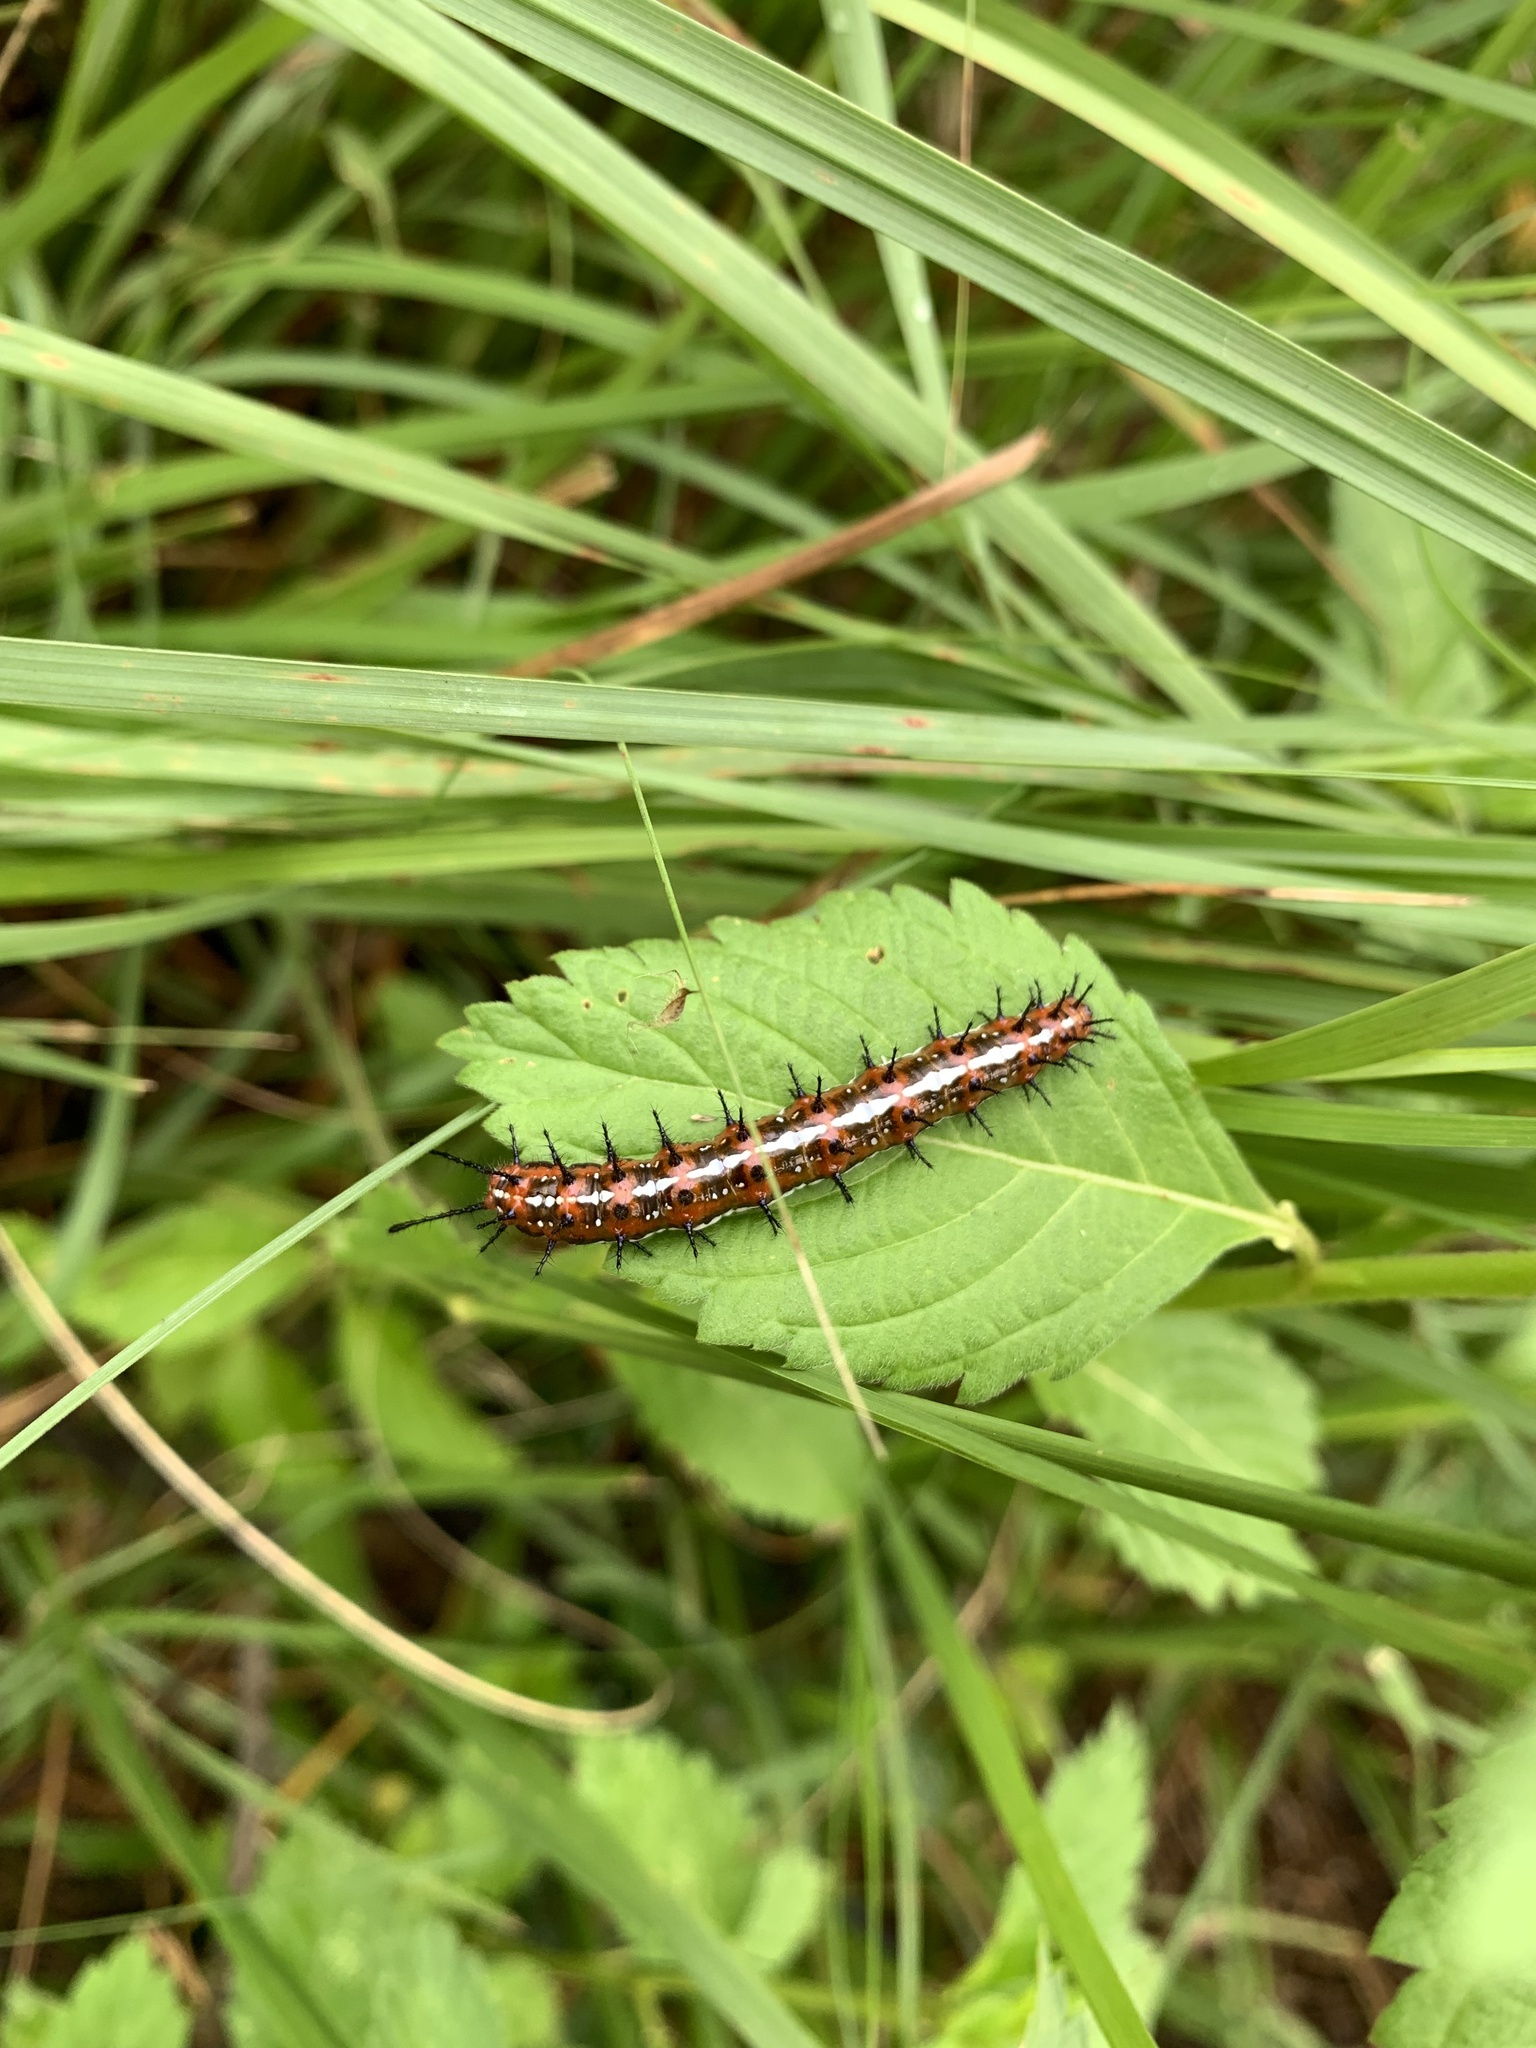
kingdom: Animalia
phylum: Arthropoda
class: Insecta
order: Lepidoptera
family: Nymphalidae
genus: Euptoieta
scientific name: Euptoieta hegesia
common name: Mexican fritillary
